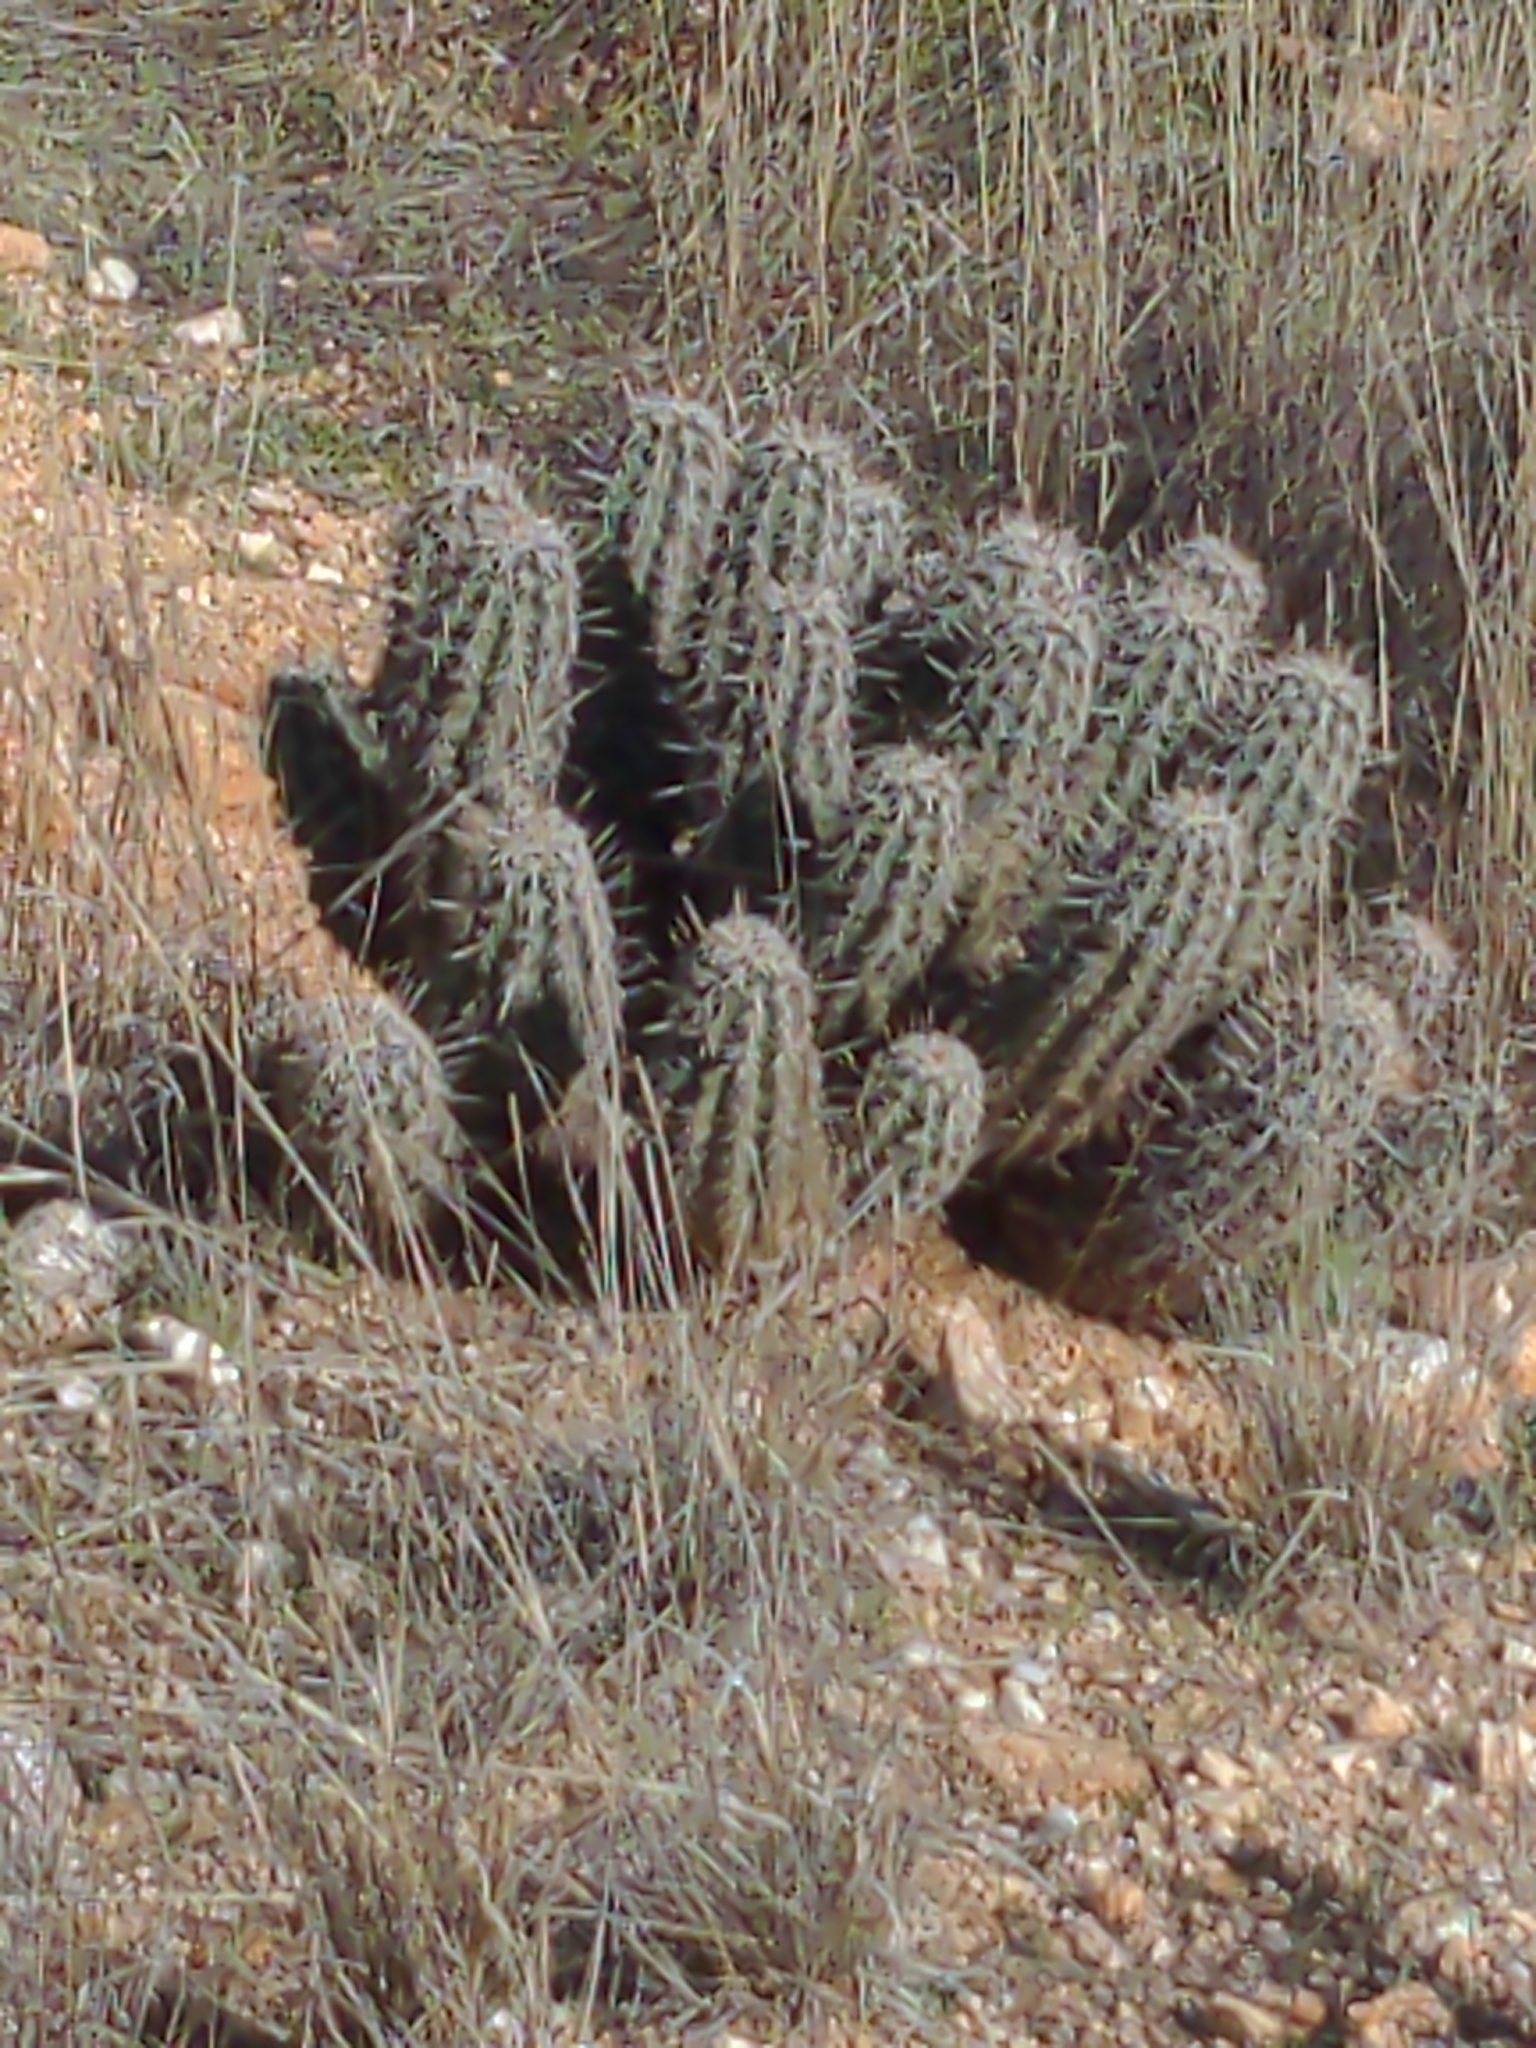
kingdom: Plantae
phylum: Tracheophyta
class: Magnoliopsida
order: Caryophyllales
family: Cactaceae
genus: Echinocereus
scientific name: Echinocereus fasciculatus
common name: Bundle hedgehog
